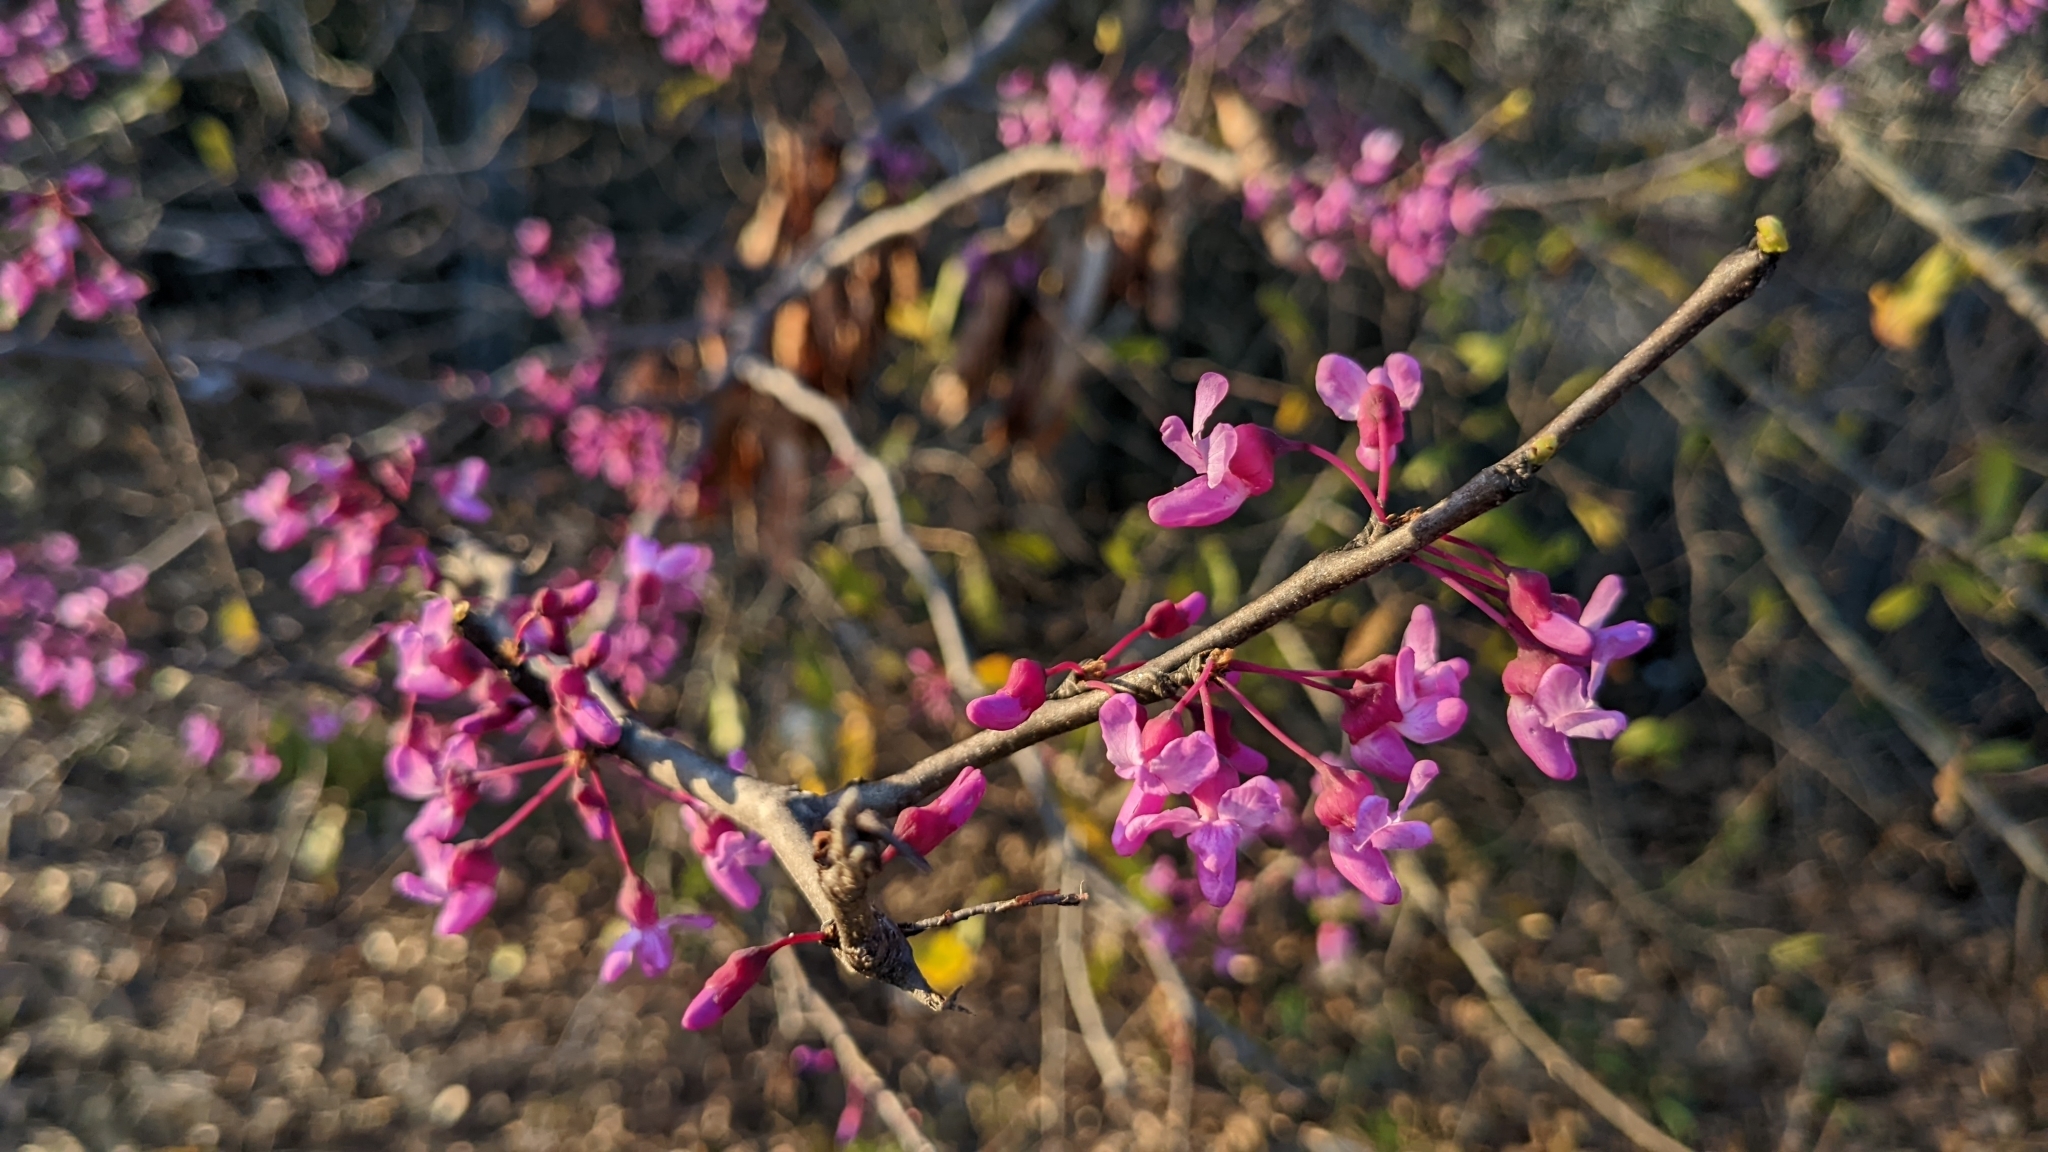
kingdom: Plantae
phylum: Tracheophyta
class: Magnoliopsida
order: Fabales
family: Fabaceae
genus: Cercis
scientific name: Cercis canadensis
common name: Eastern redbud
